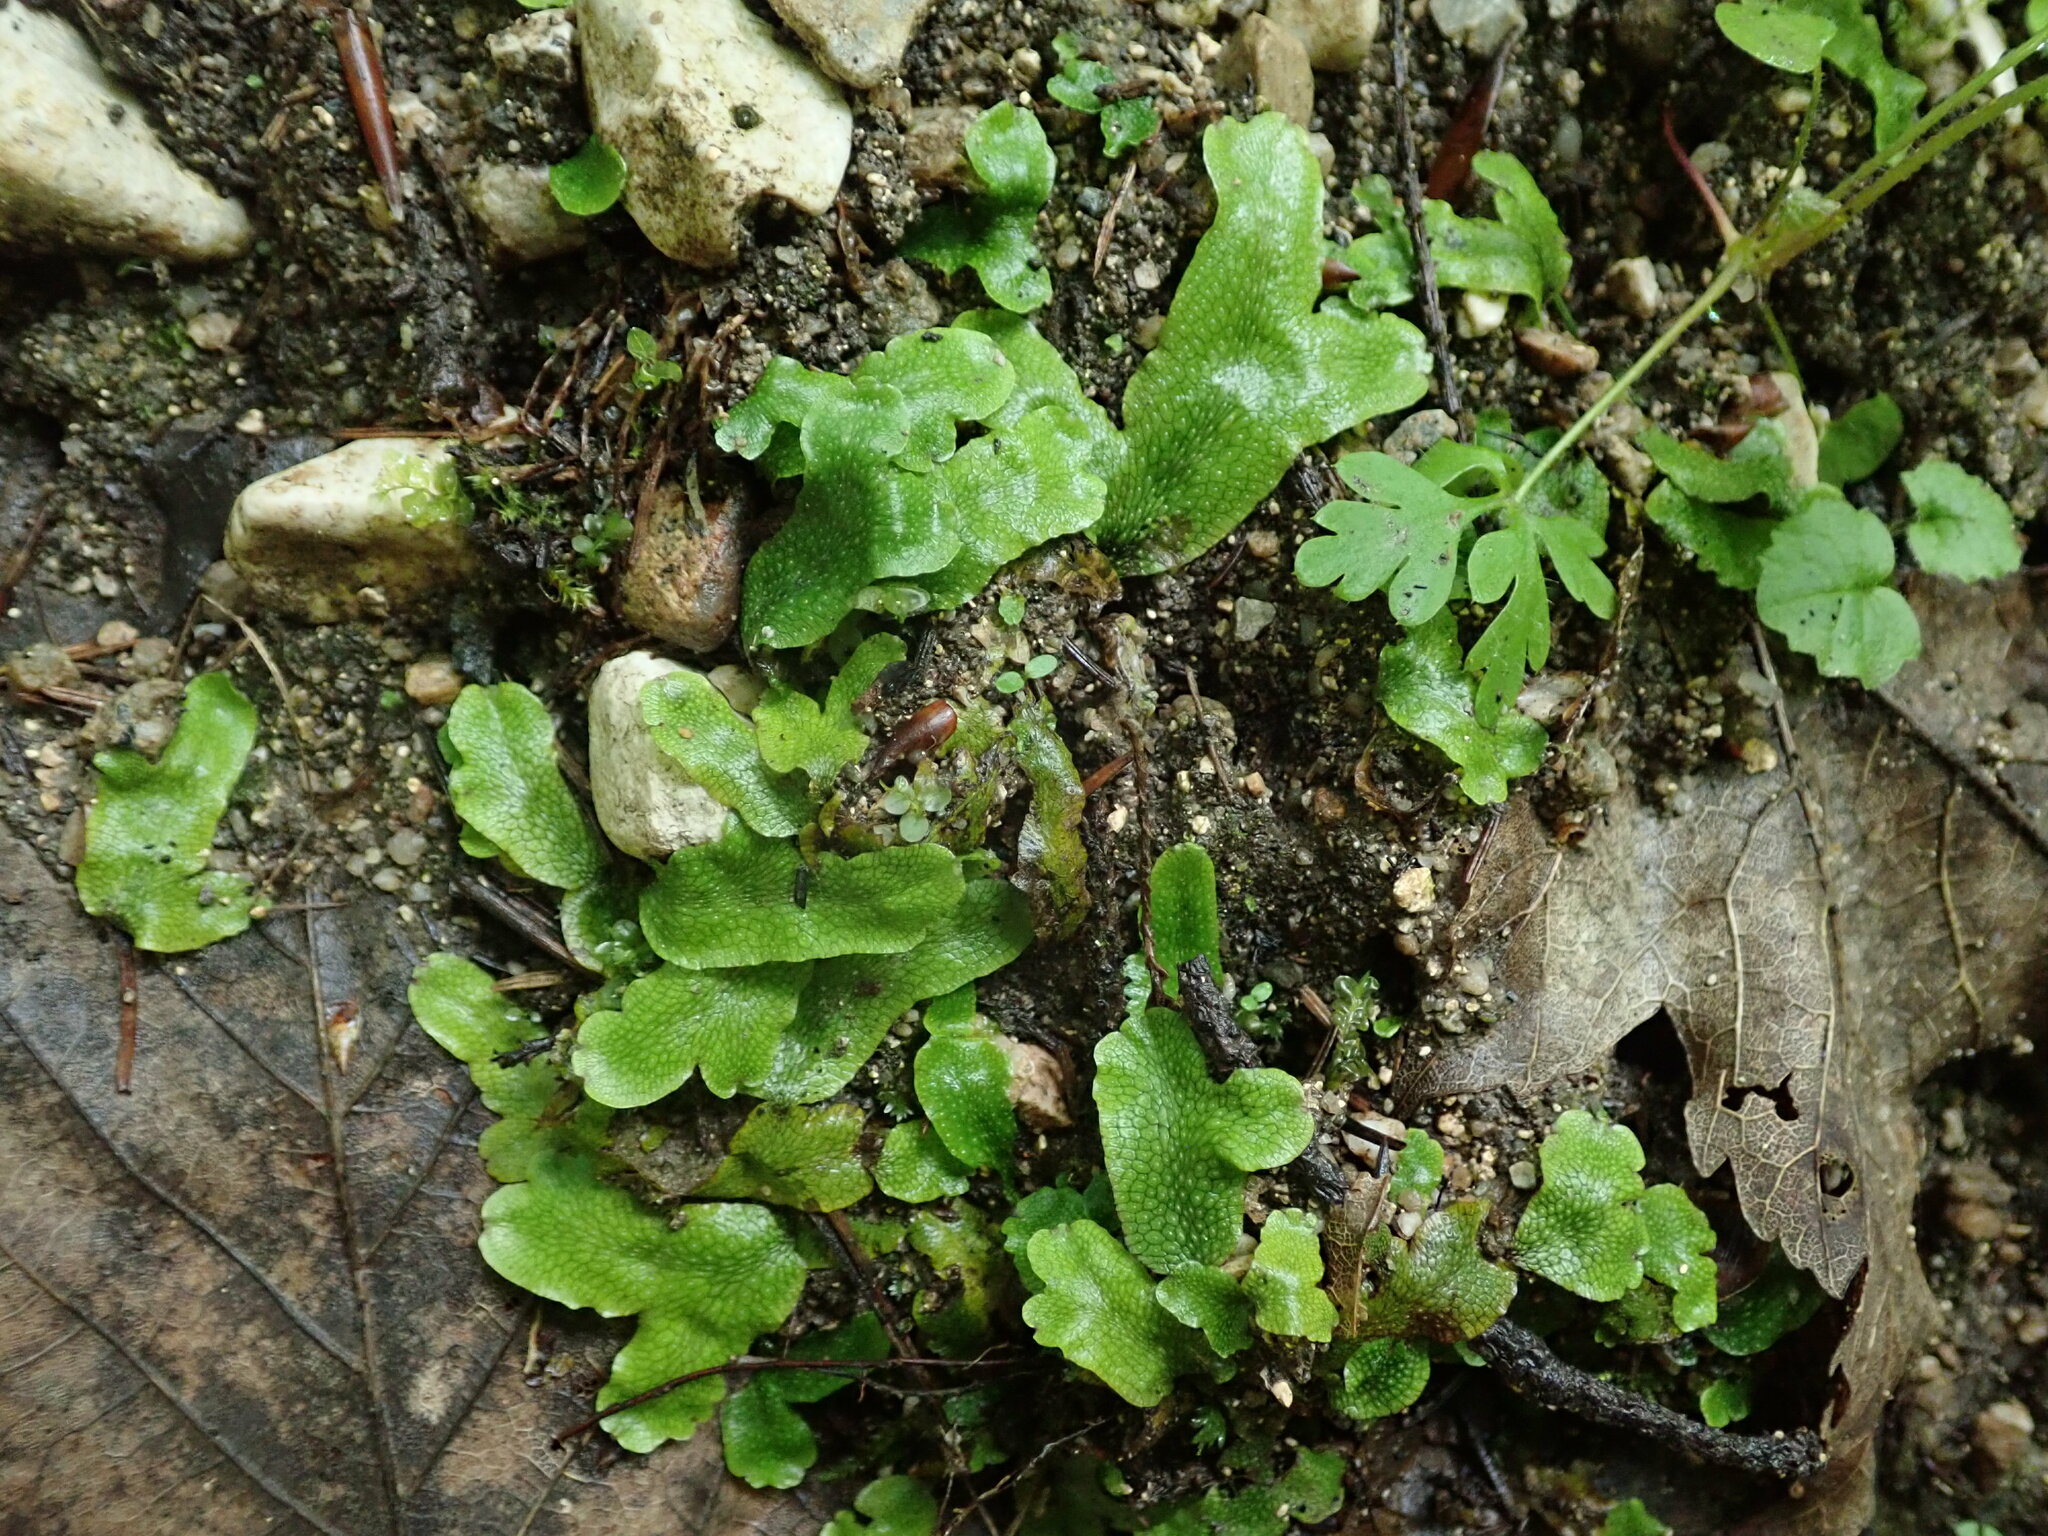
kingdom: Plantae
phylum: Marchantiophyta
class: Marchantiopsida
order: Marchantiales
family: Conocephalaceae
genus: Conocephalum
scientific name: Conocephalum conicum
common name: Great scented liverwort
